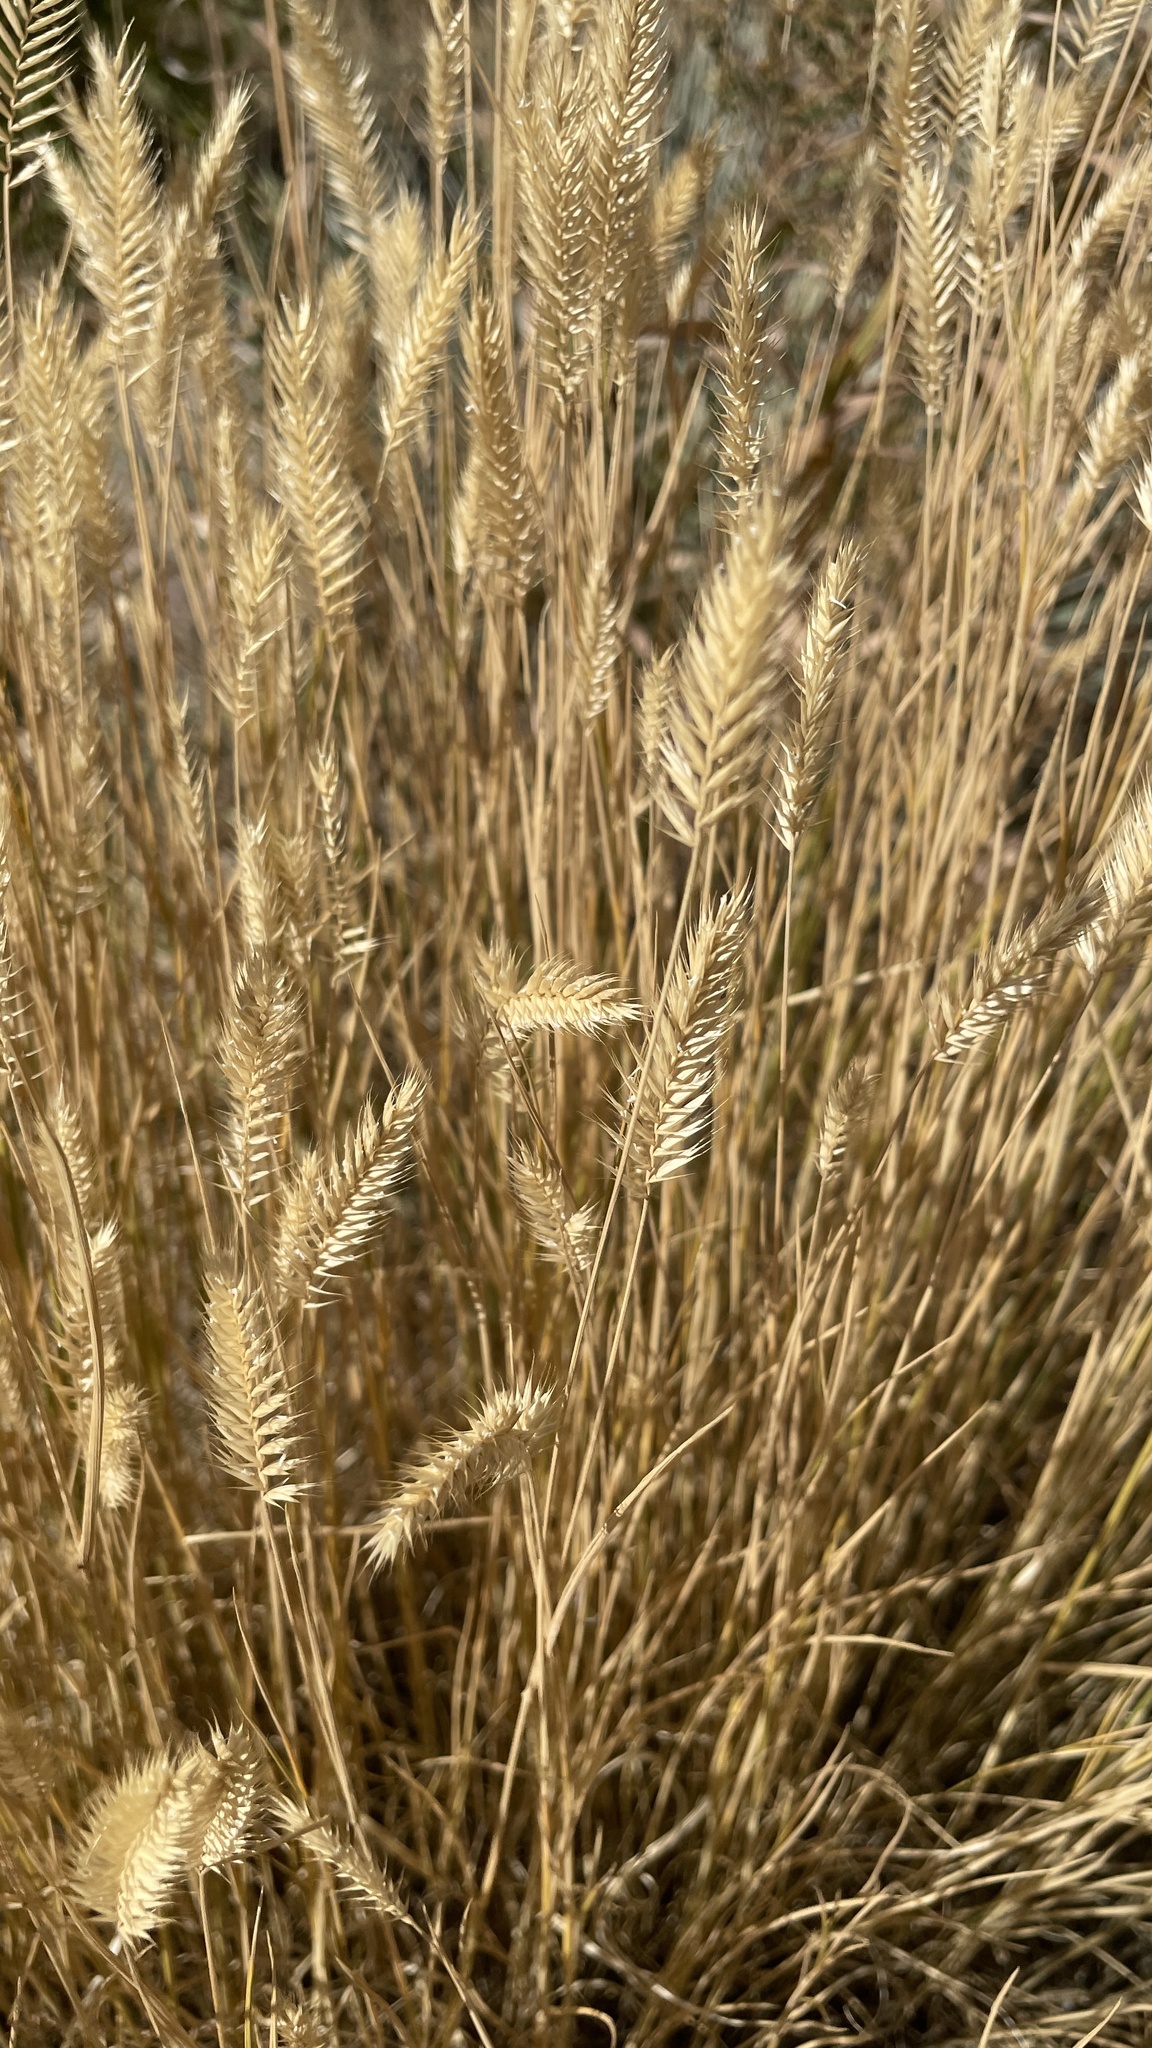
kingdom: Plantae
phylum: Tracheophyta
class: Liliopsida
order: Poales
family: Poaceae
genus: Agropyron
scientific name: Agropyron cristatum
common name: Crested wheatgrass
